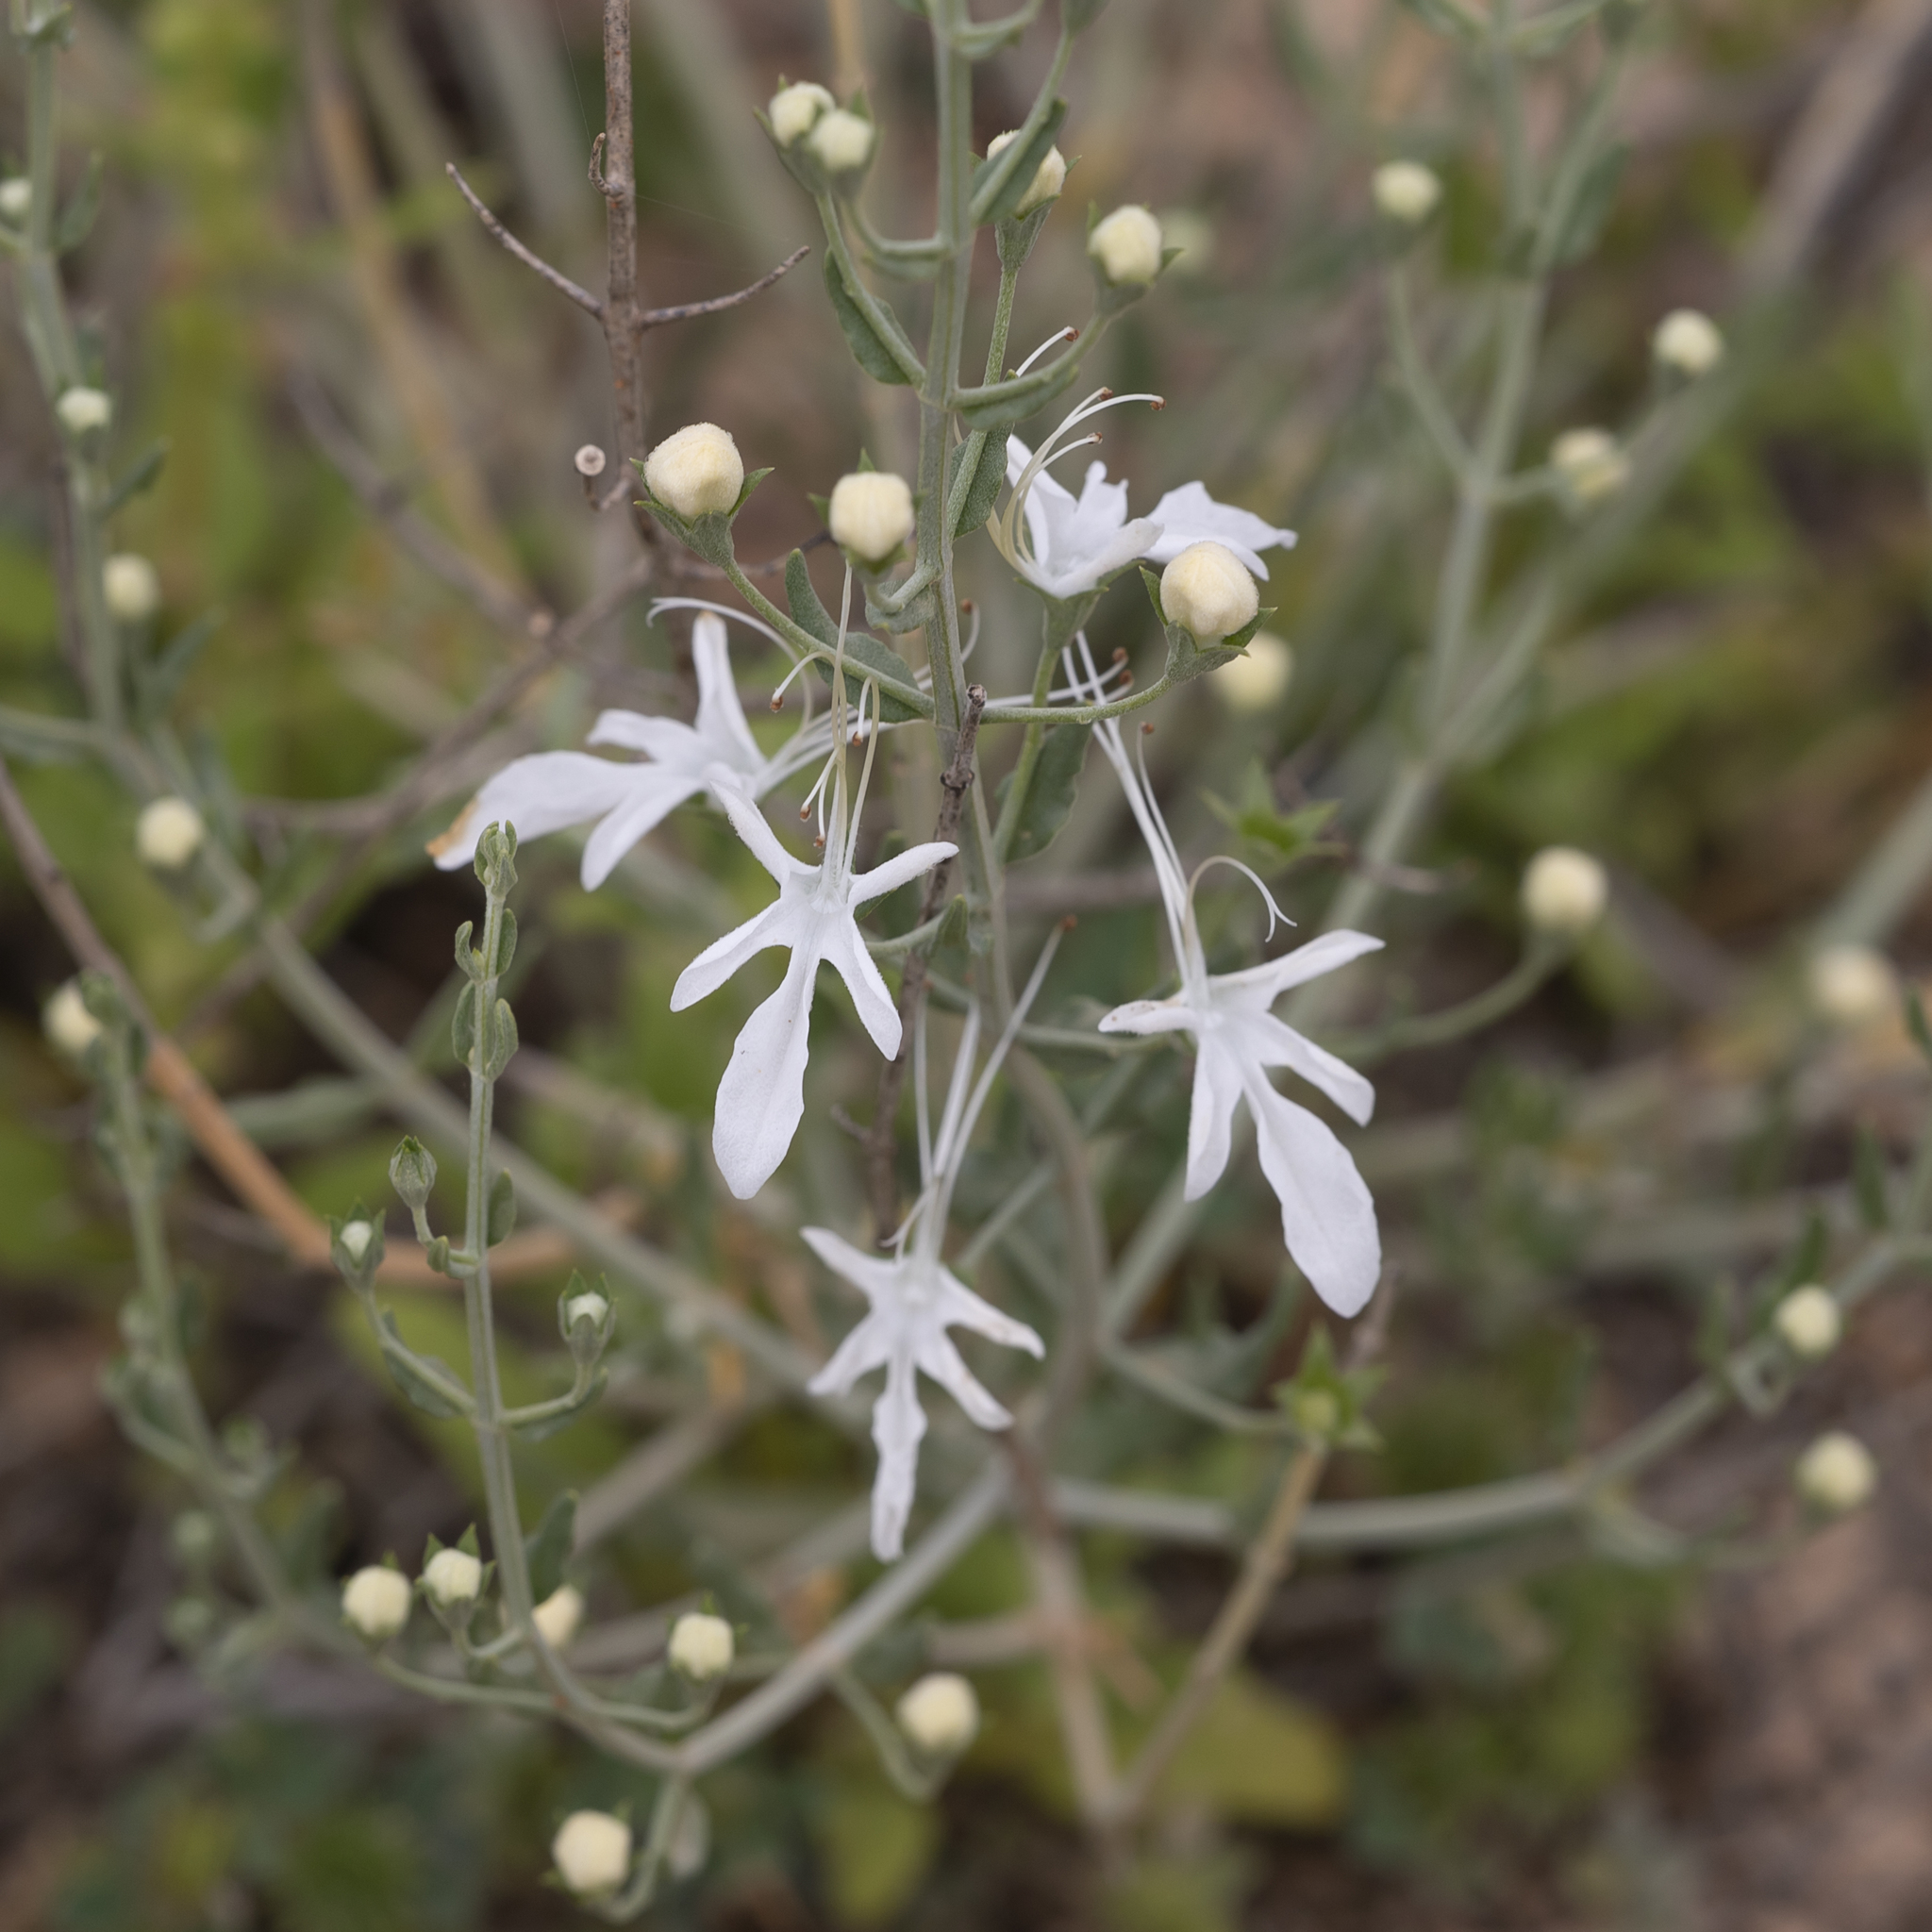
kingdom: Plantae
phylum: Tracheophyta
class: Magnoliopsida
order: Lamiales
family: Lamiaceae
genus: Teucrium
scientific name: Teucrium racemosum
